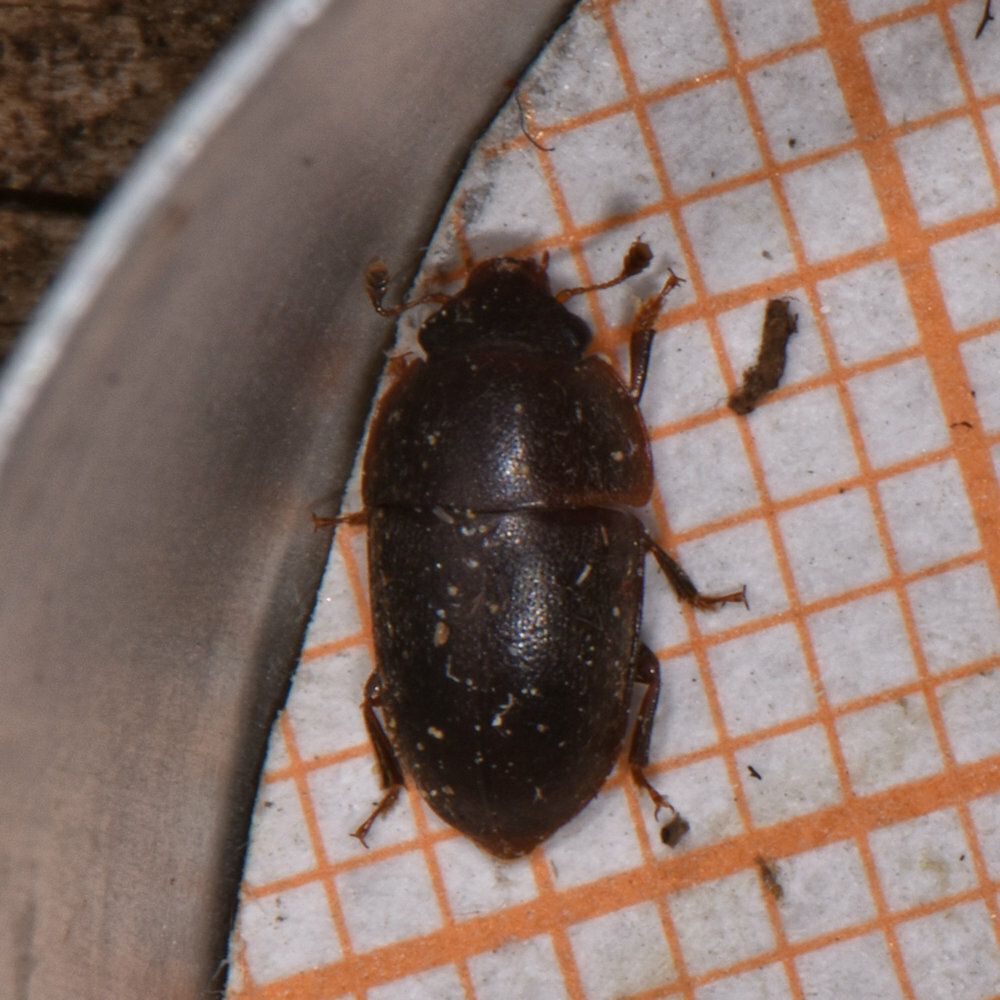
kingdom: Animalia
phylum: Arthropoda
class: Insecta
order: Coleoptera
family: Nitidulidae
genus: Cryptarcha
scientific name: Cryptarcha ampla
